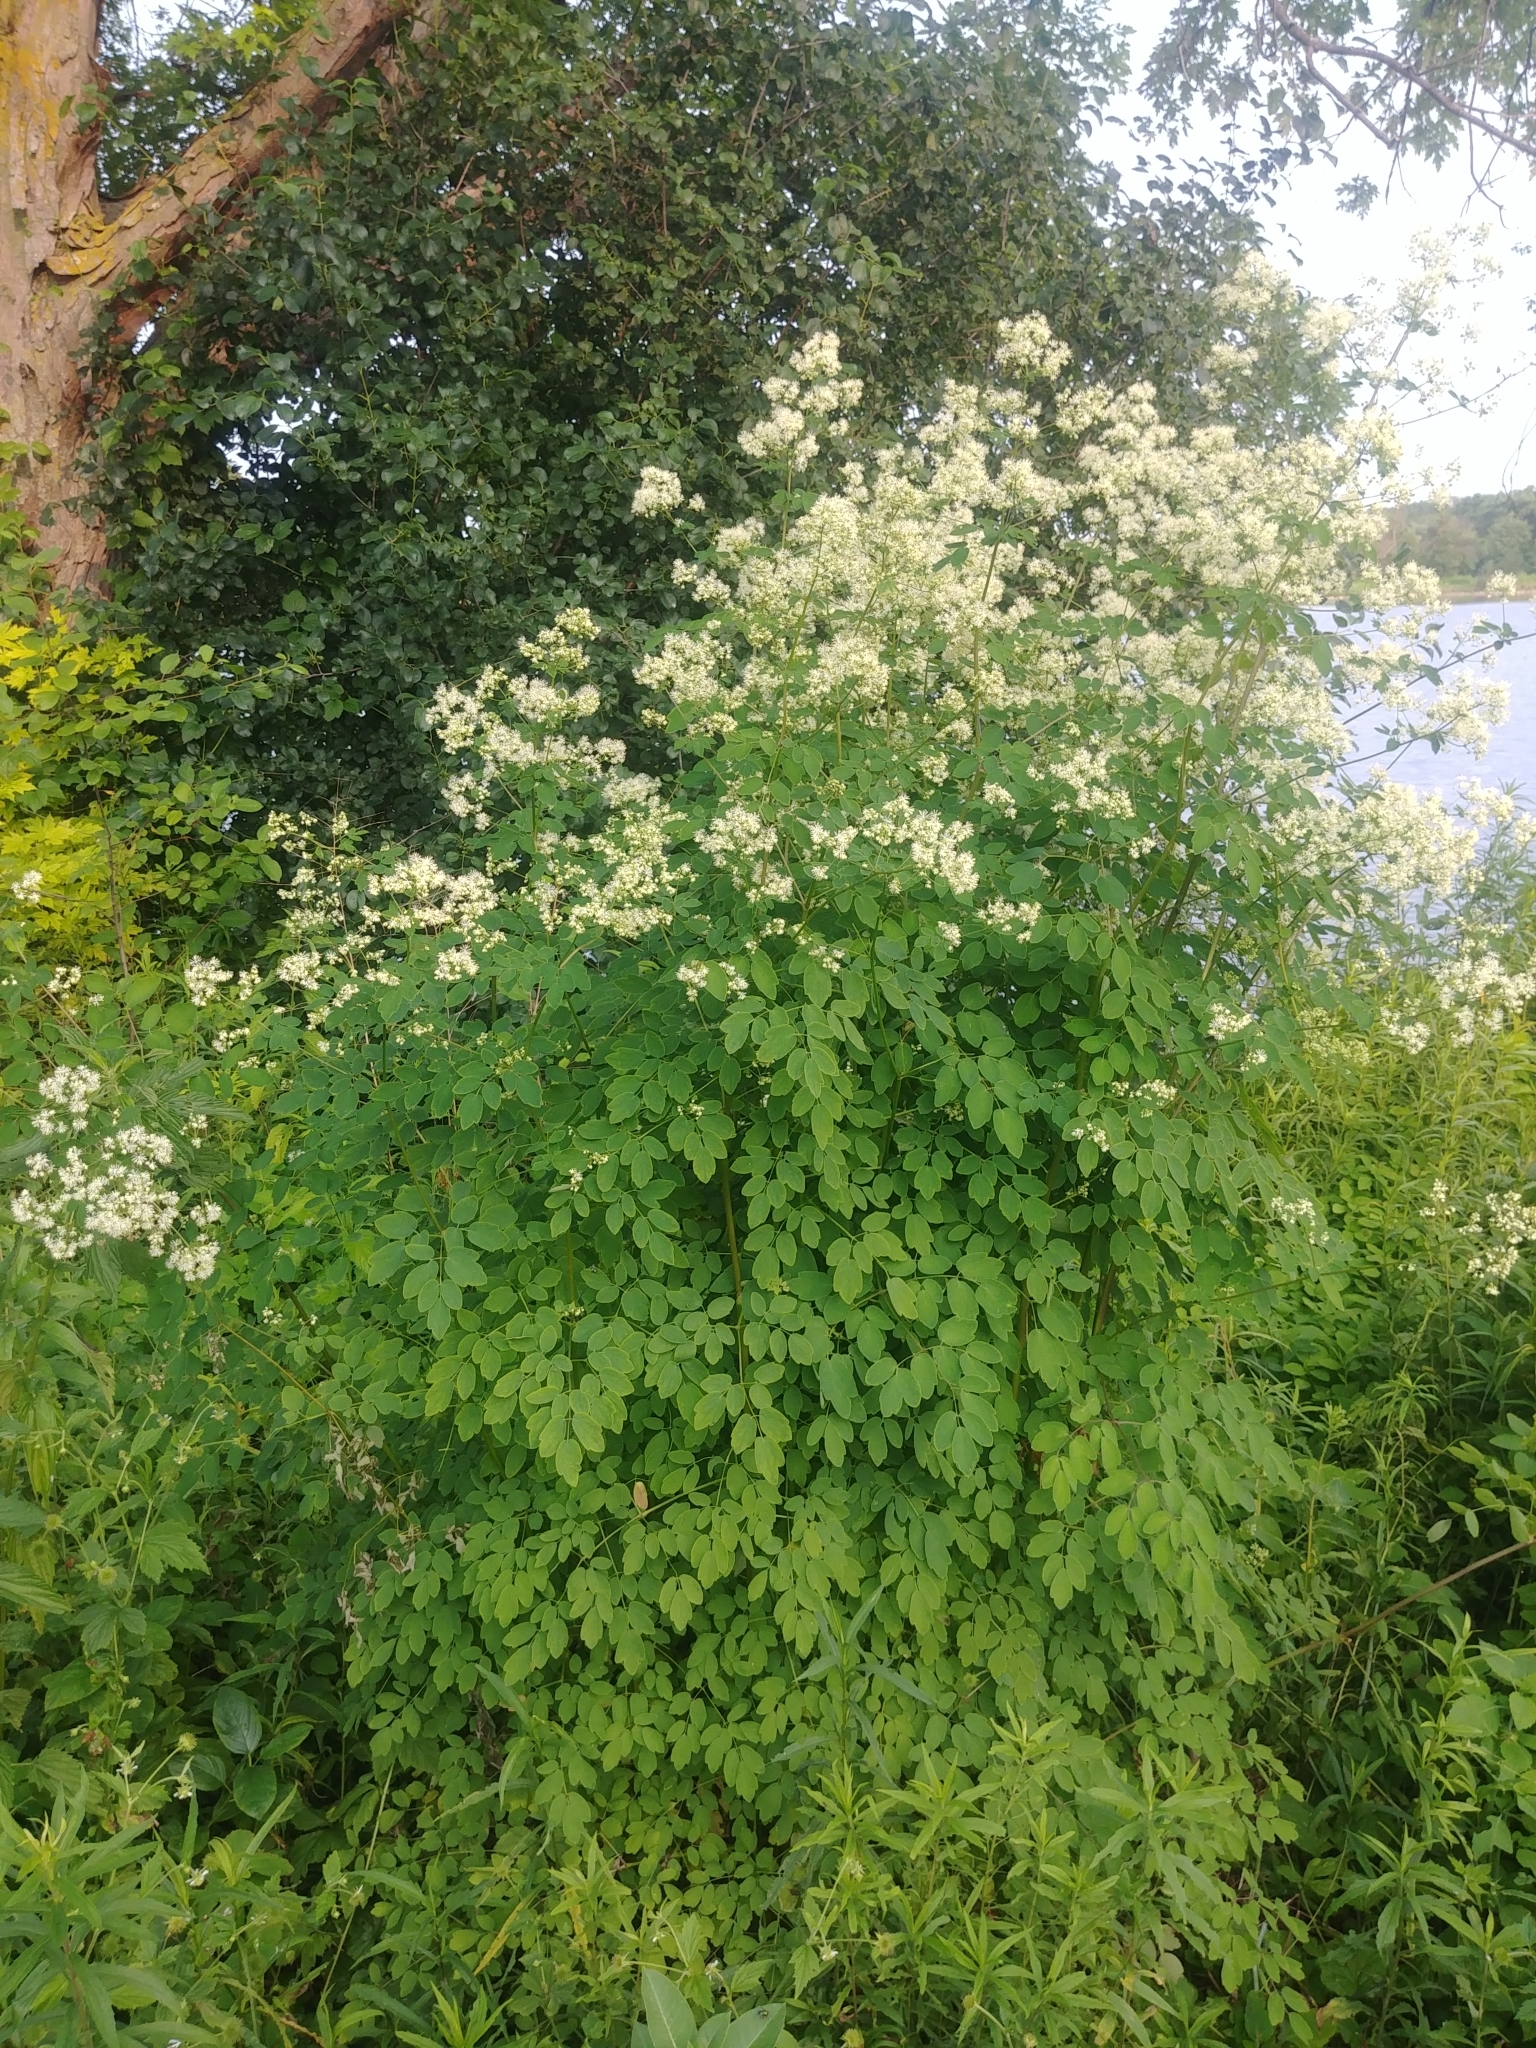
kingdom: Plantae
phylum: Tracheophyta
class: Magnoliopsida
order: Ranunculales
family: Ranunculaceae
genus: Thalictrum
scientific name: Thalictrum pubescens
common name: King-of-the-meadow
